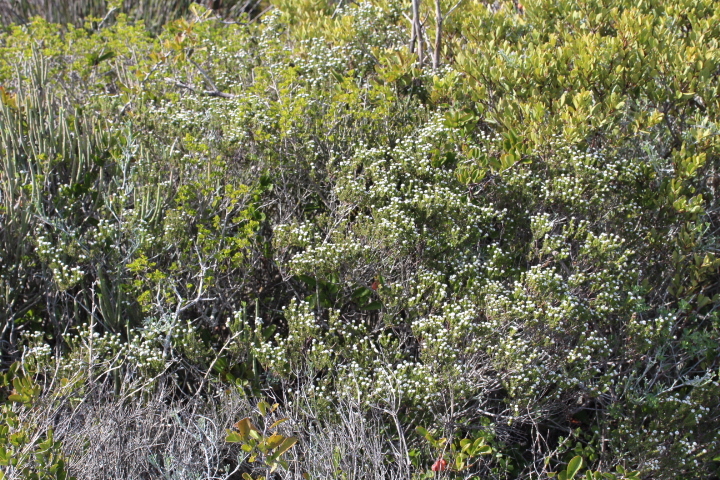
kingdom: Plantae
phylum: Tracheophyta
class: Magnoliopsida
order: Rosales
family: Rhamnaceae
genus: Phylica
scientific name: Phylica ericoides
